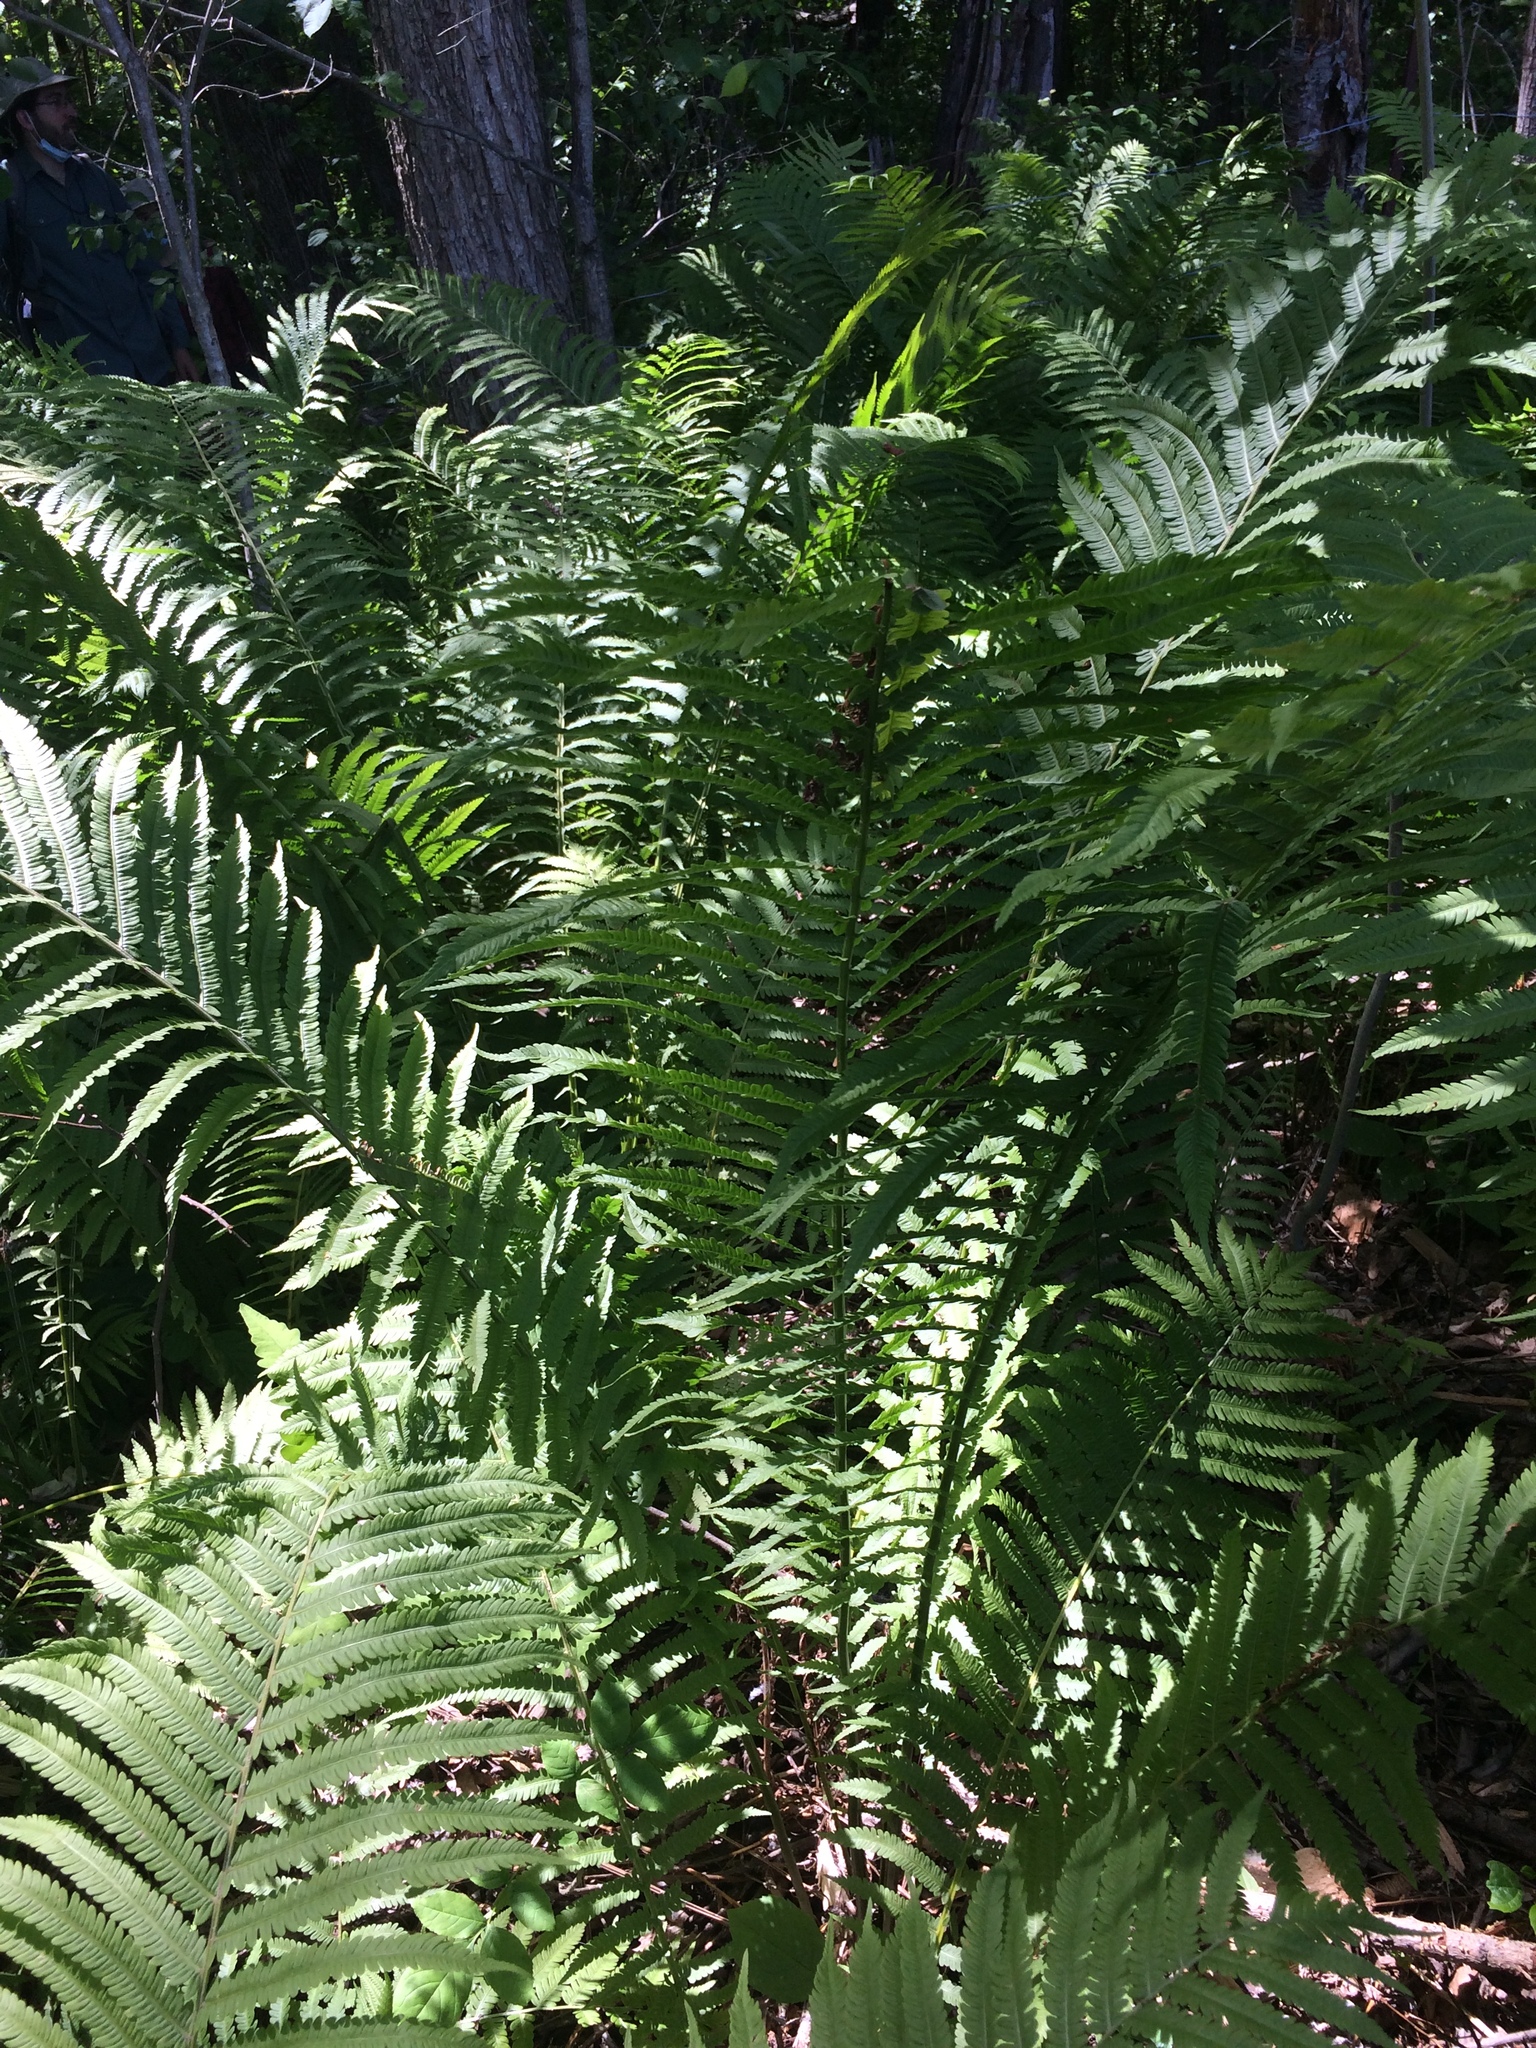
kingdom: Plantae
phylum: Tracheophyta
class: Polypodiopsida
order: Polypodiales
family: Onocleaceae
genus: Matteuccia
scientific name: Matteuccia struthiopteris
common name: Ostrich fern
